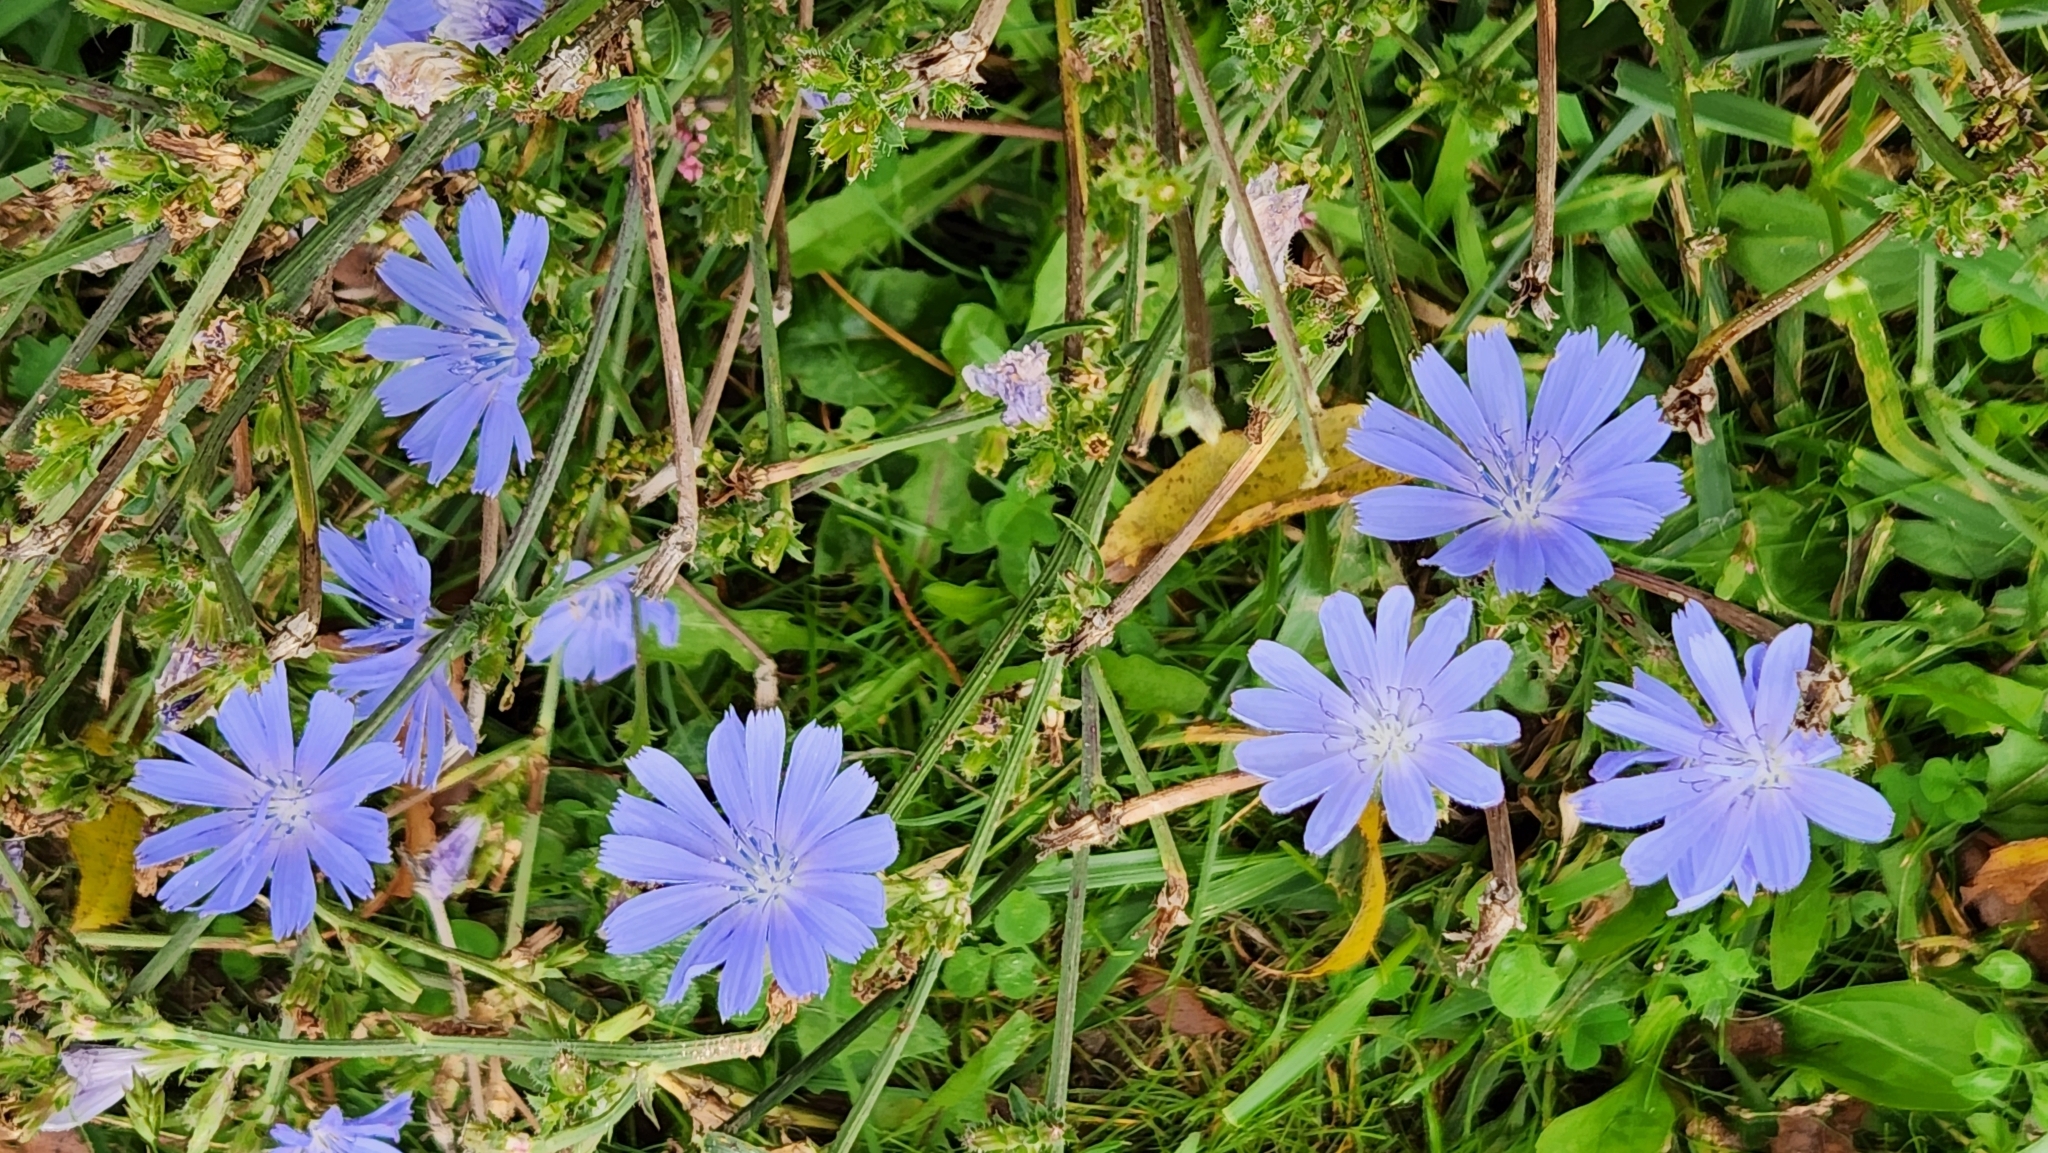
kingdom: Plantae
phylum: Tracheophyta
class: Magnoliopsida
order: Asterales
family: Asteraceae
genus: Cichorium
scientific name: Cichorium intybus
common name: Chicory
